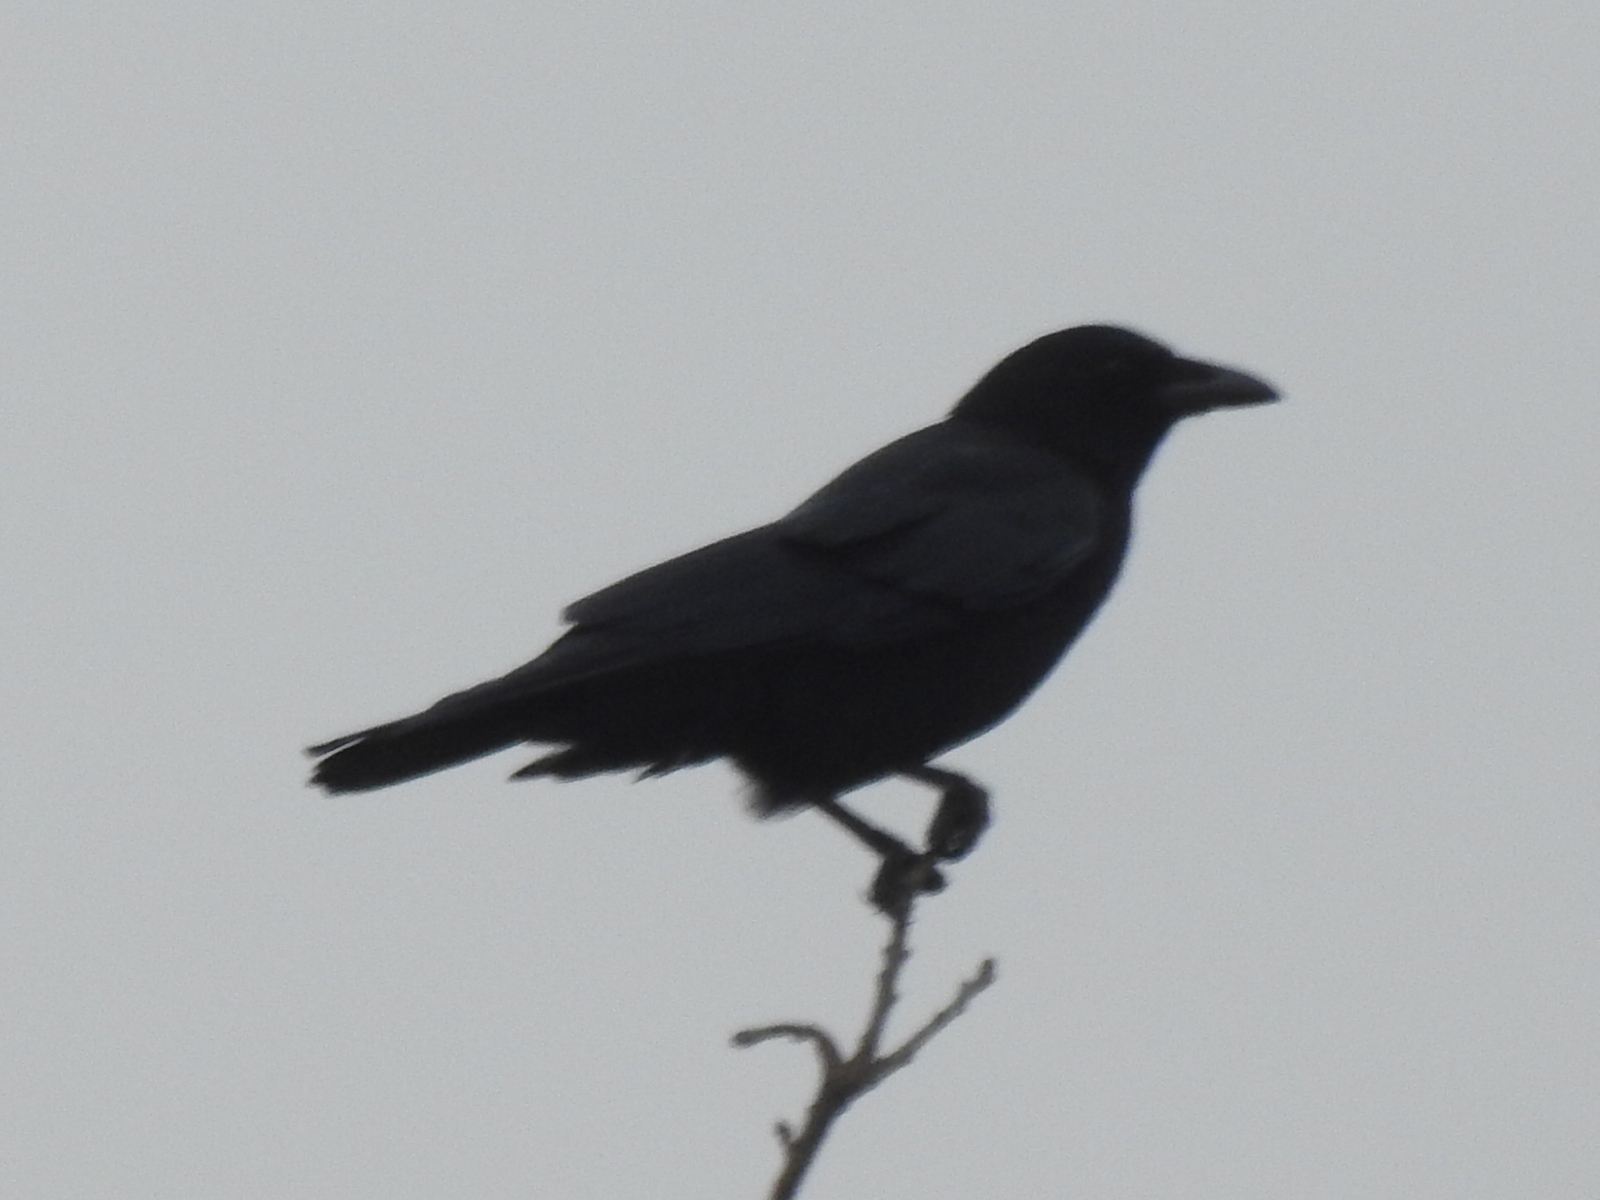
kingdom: Animalia
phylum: Chordata
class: Aves
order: Passeriformes
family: Corvidae
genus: Corvus
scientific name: Corvus brachyrhynchos
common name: American crow
